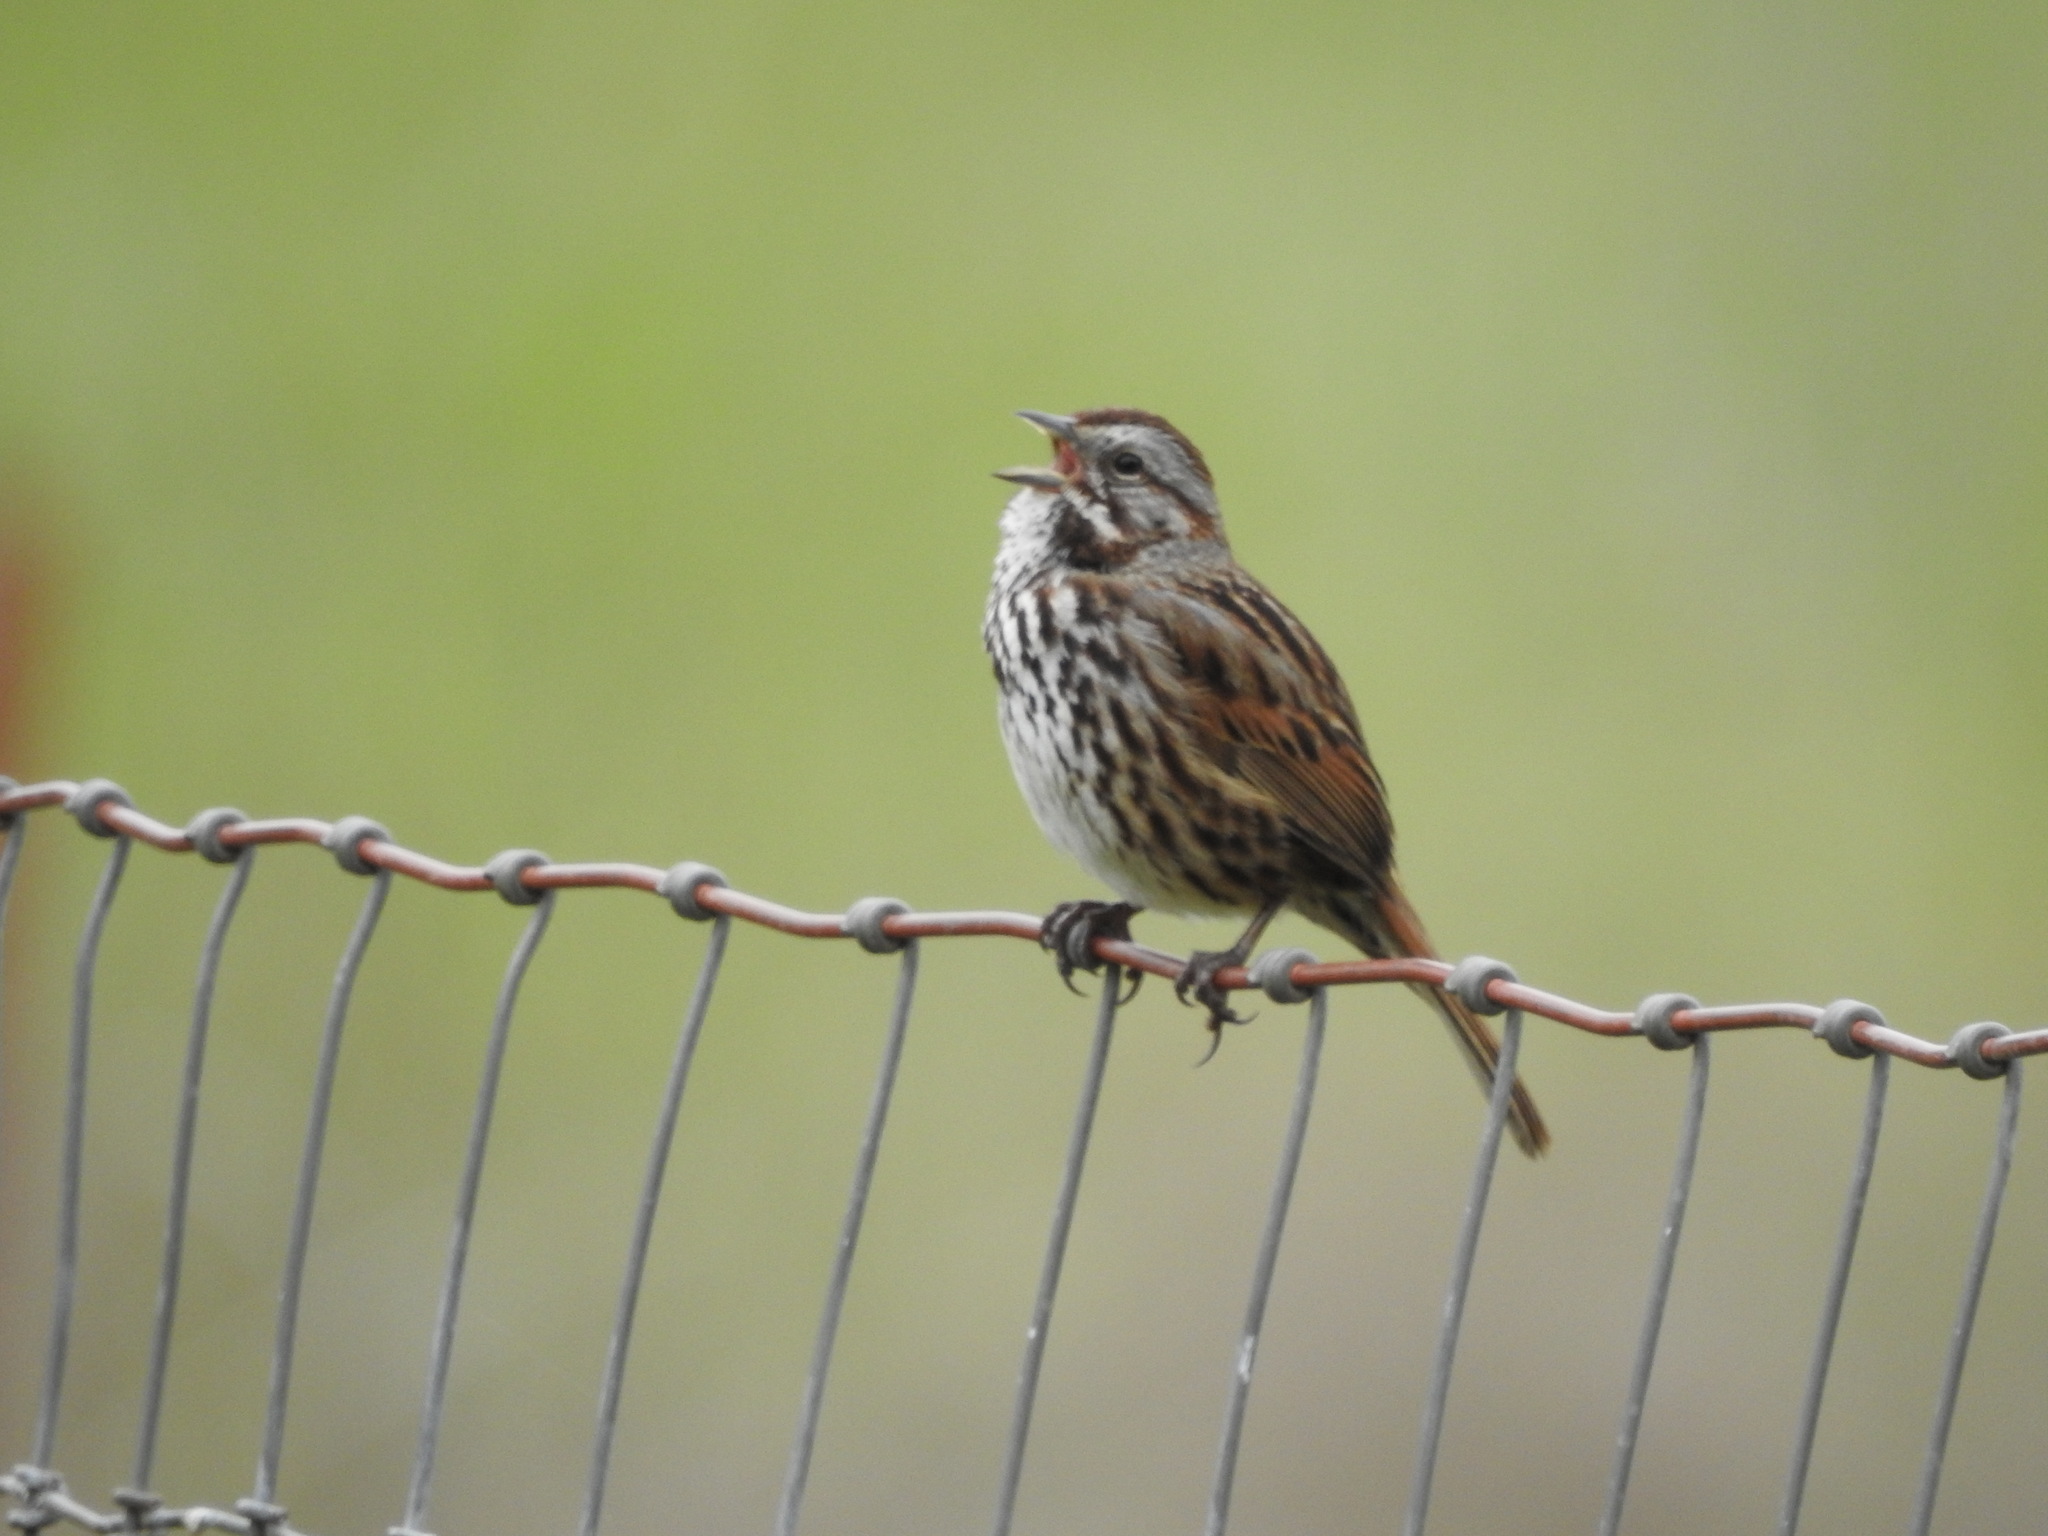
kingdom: Animalia
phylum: Chordata
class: Aves
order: Passeriformes
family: Passerellidae
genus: Melospiza
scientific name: Melospiza melodia
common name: Song sparrow
